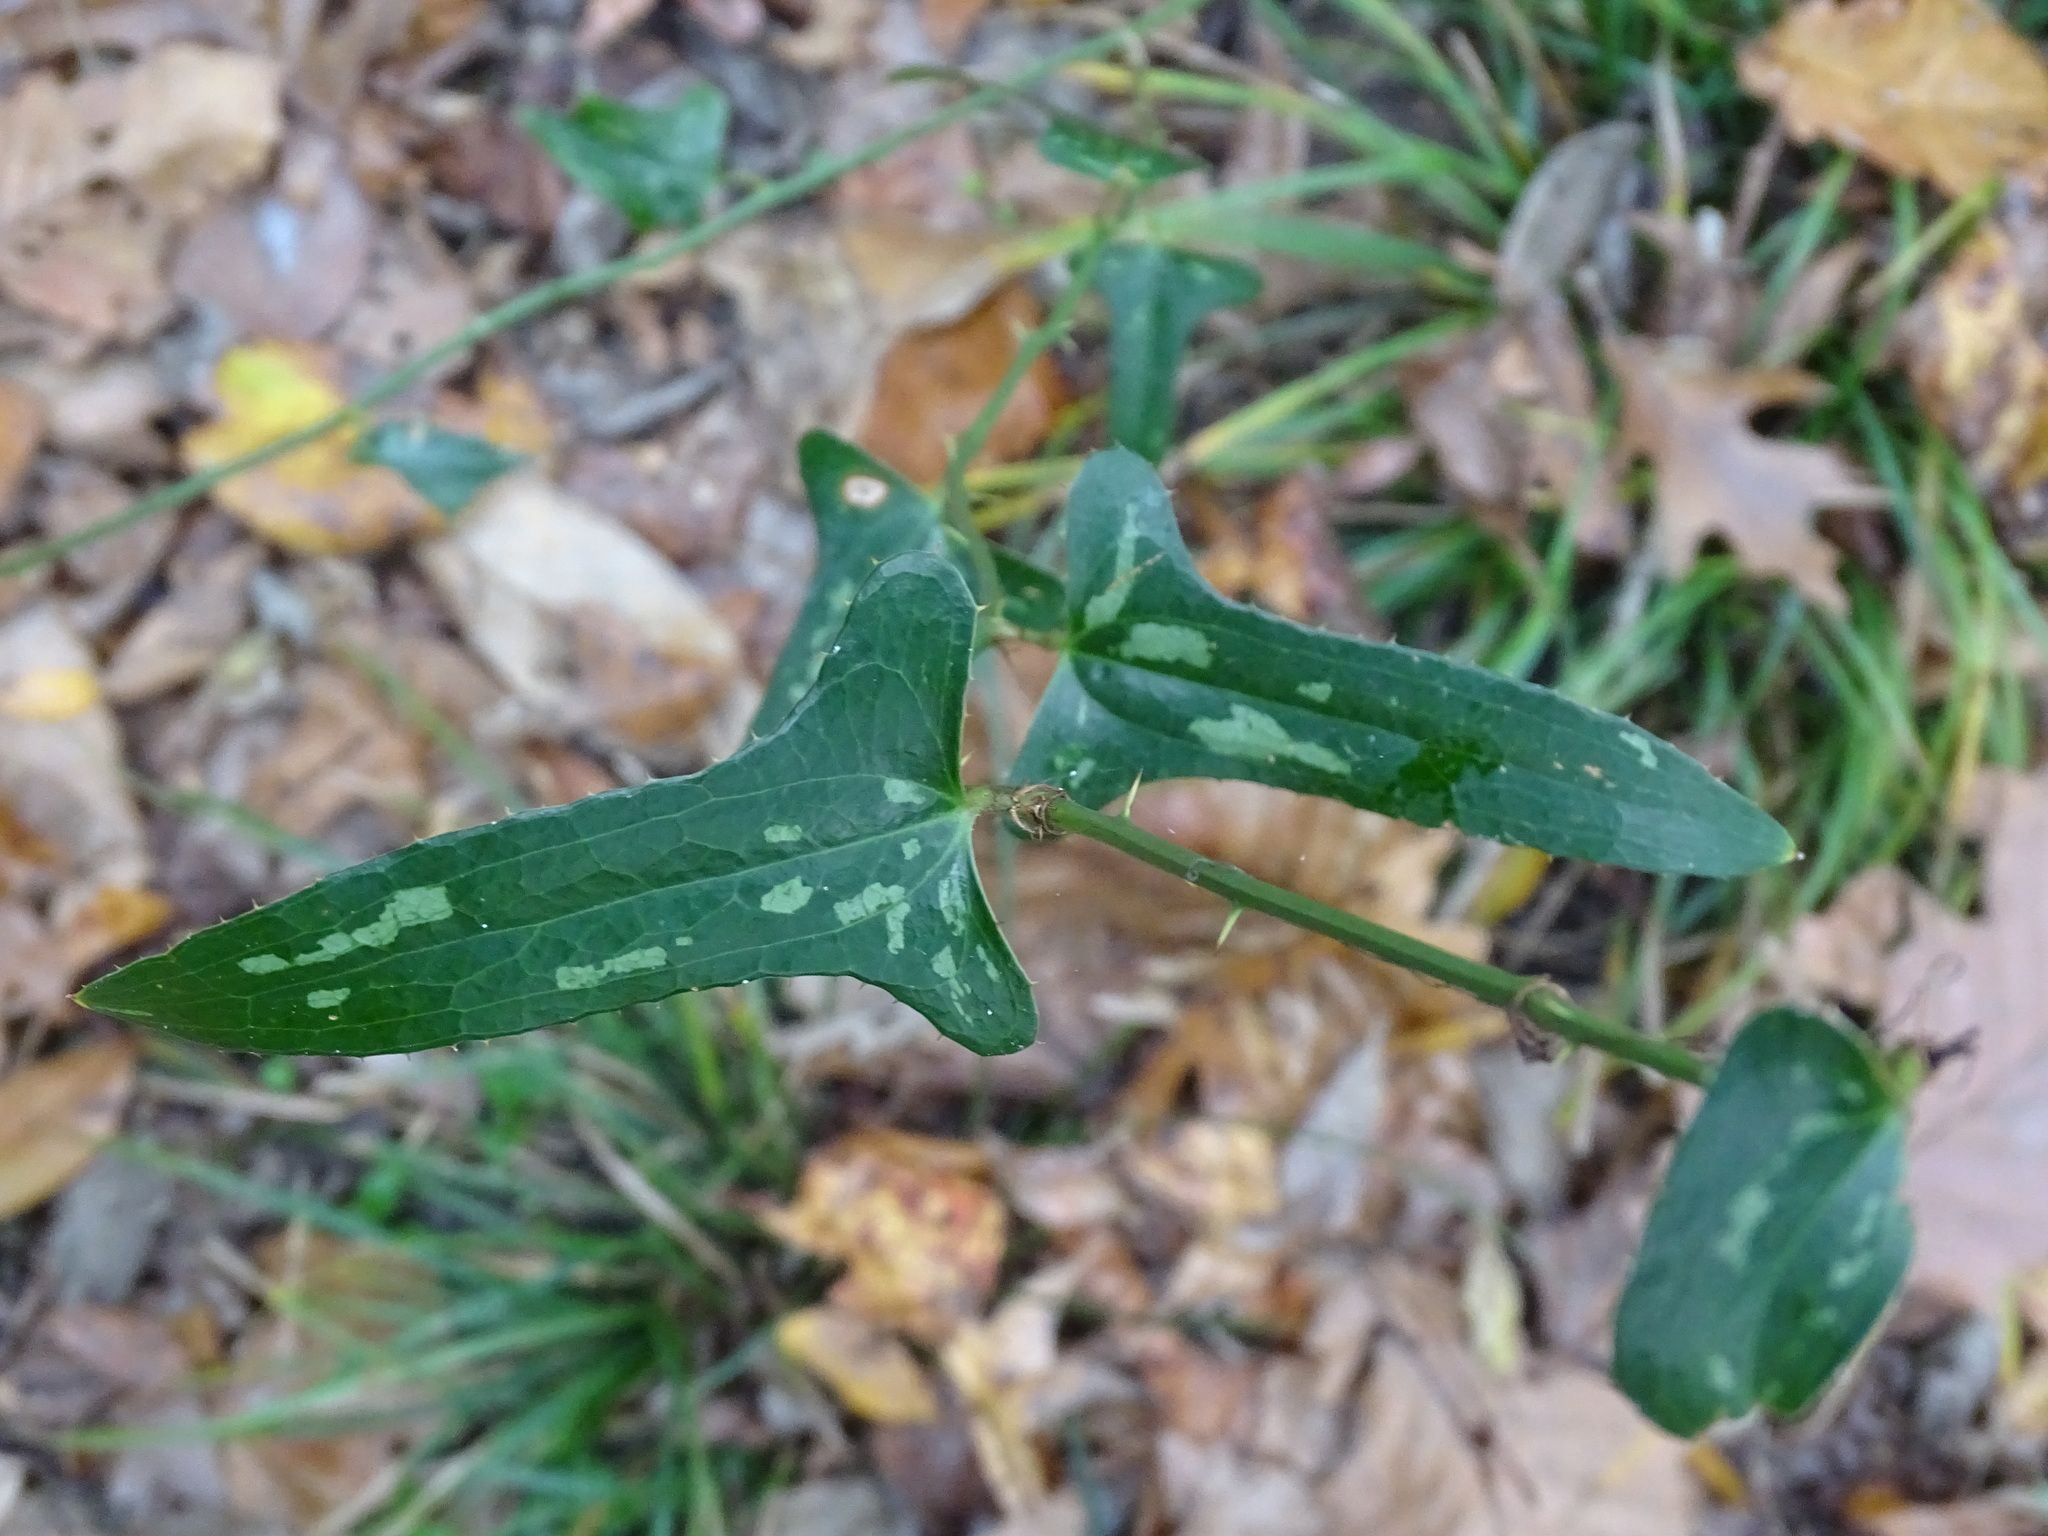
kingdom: Plantae
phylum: Tracheophyta
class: Liliopsida
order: Liliales
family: Smilacaceae
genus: Smilax
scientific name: Smilax bona-nox
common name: Catbrier
